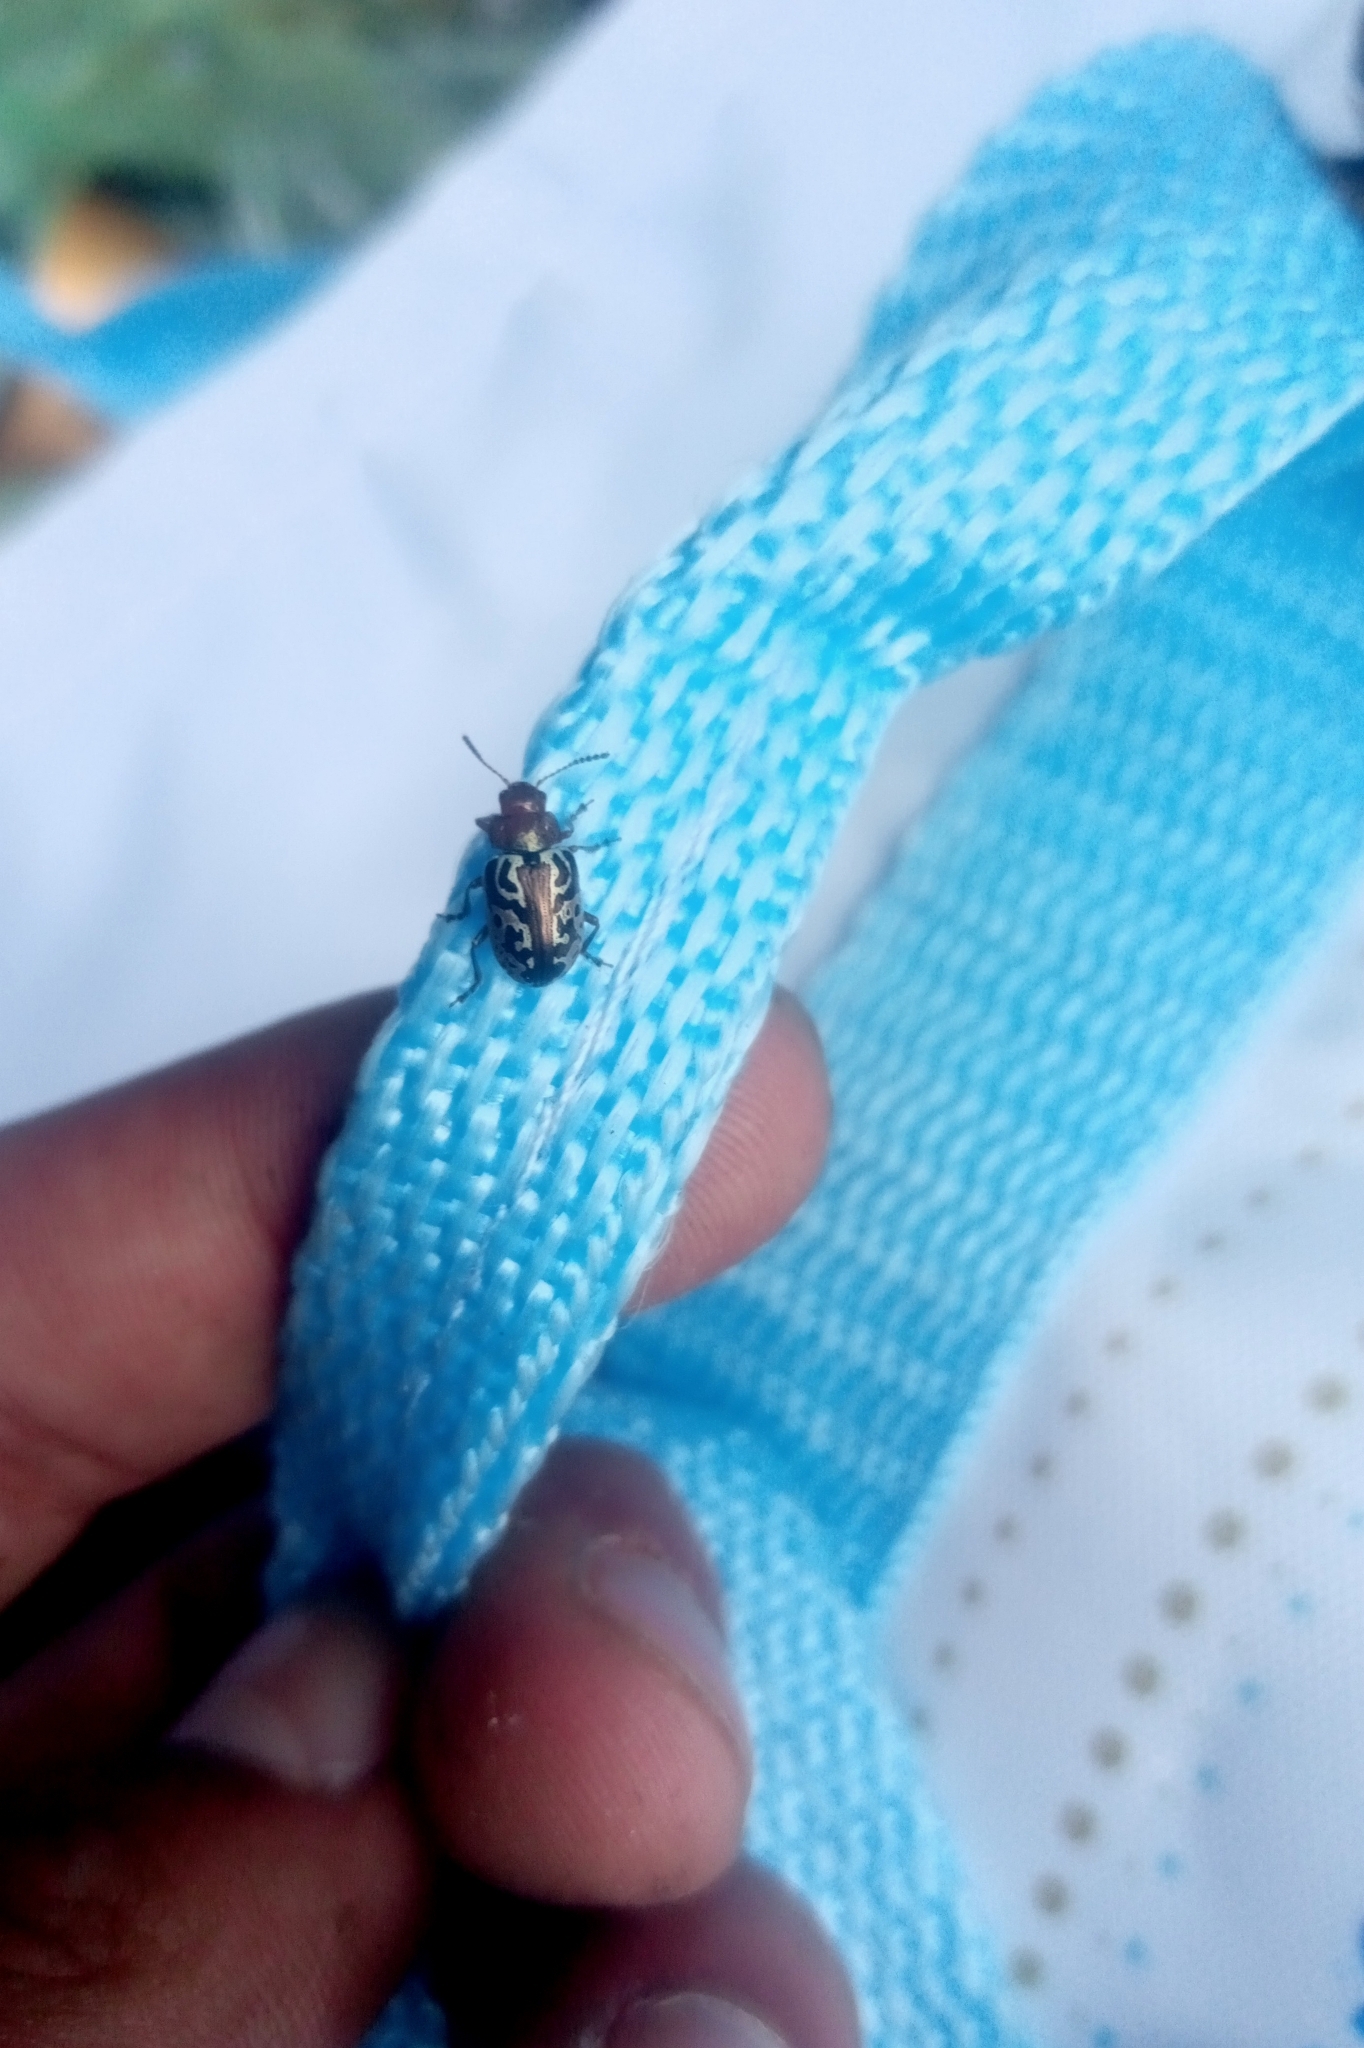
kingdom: Animalia
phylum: Arthropoda
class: Insecta
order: Coleoptera
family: Chrysomelidae
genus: Calligrapha
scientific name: Calligrapha
